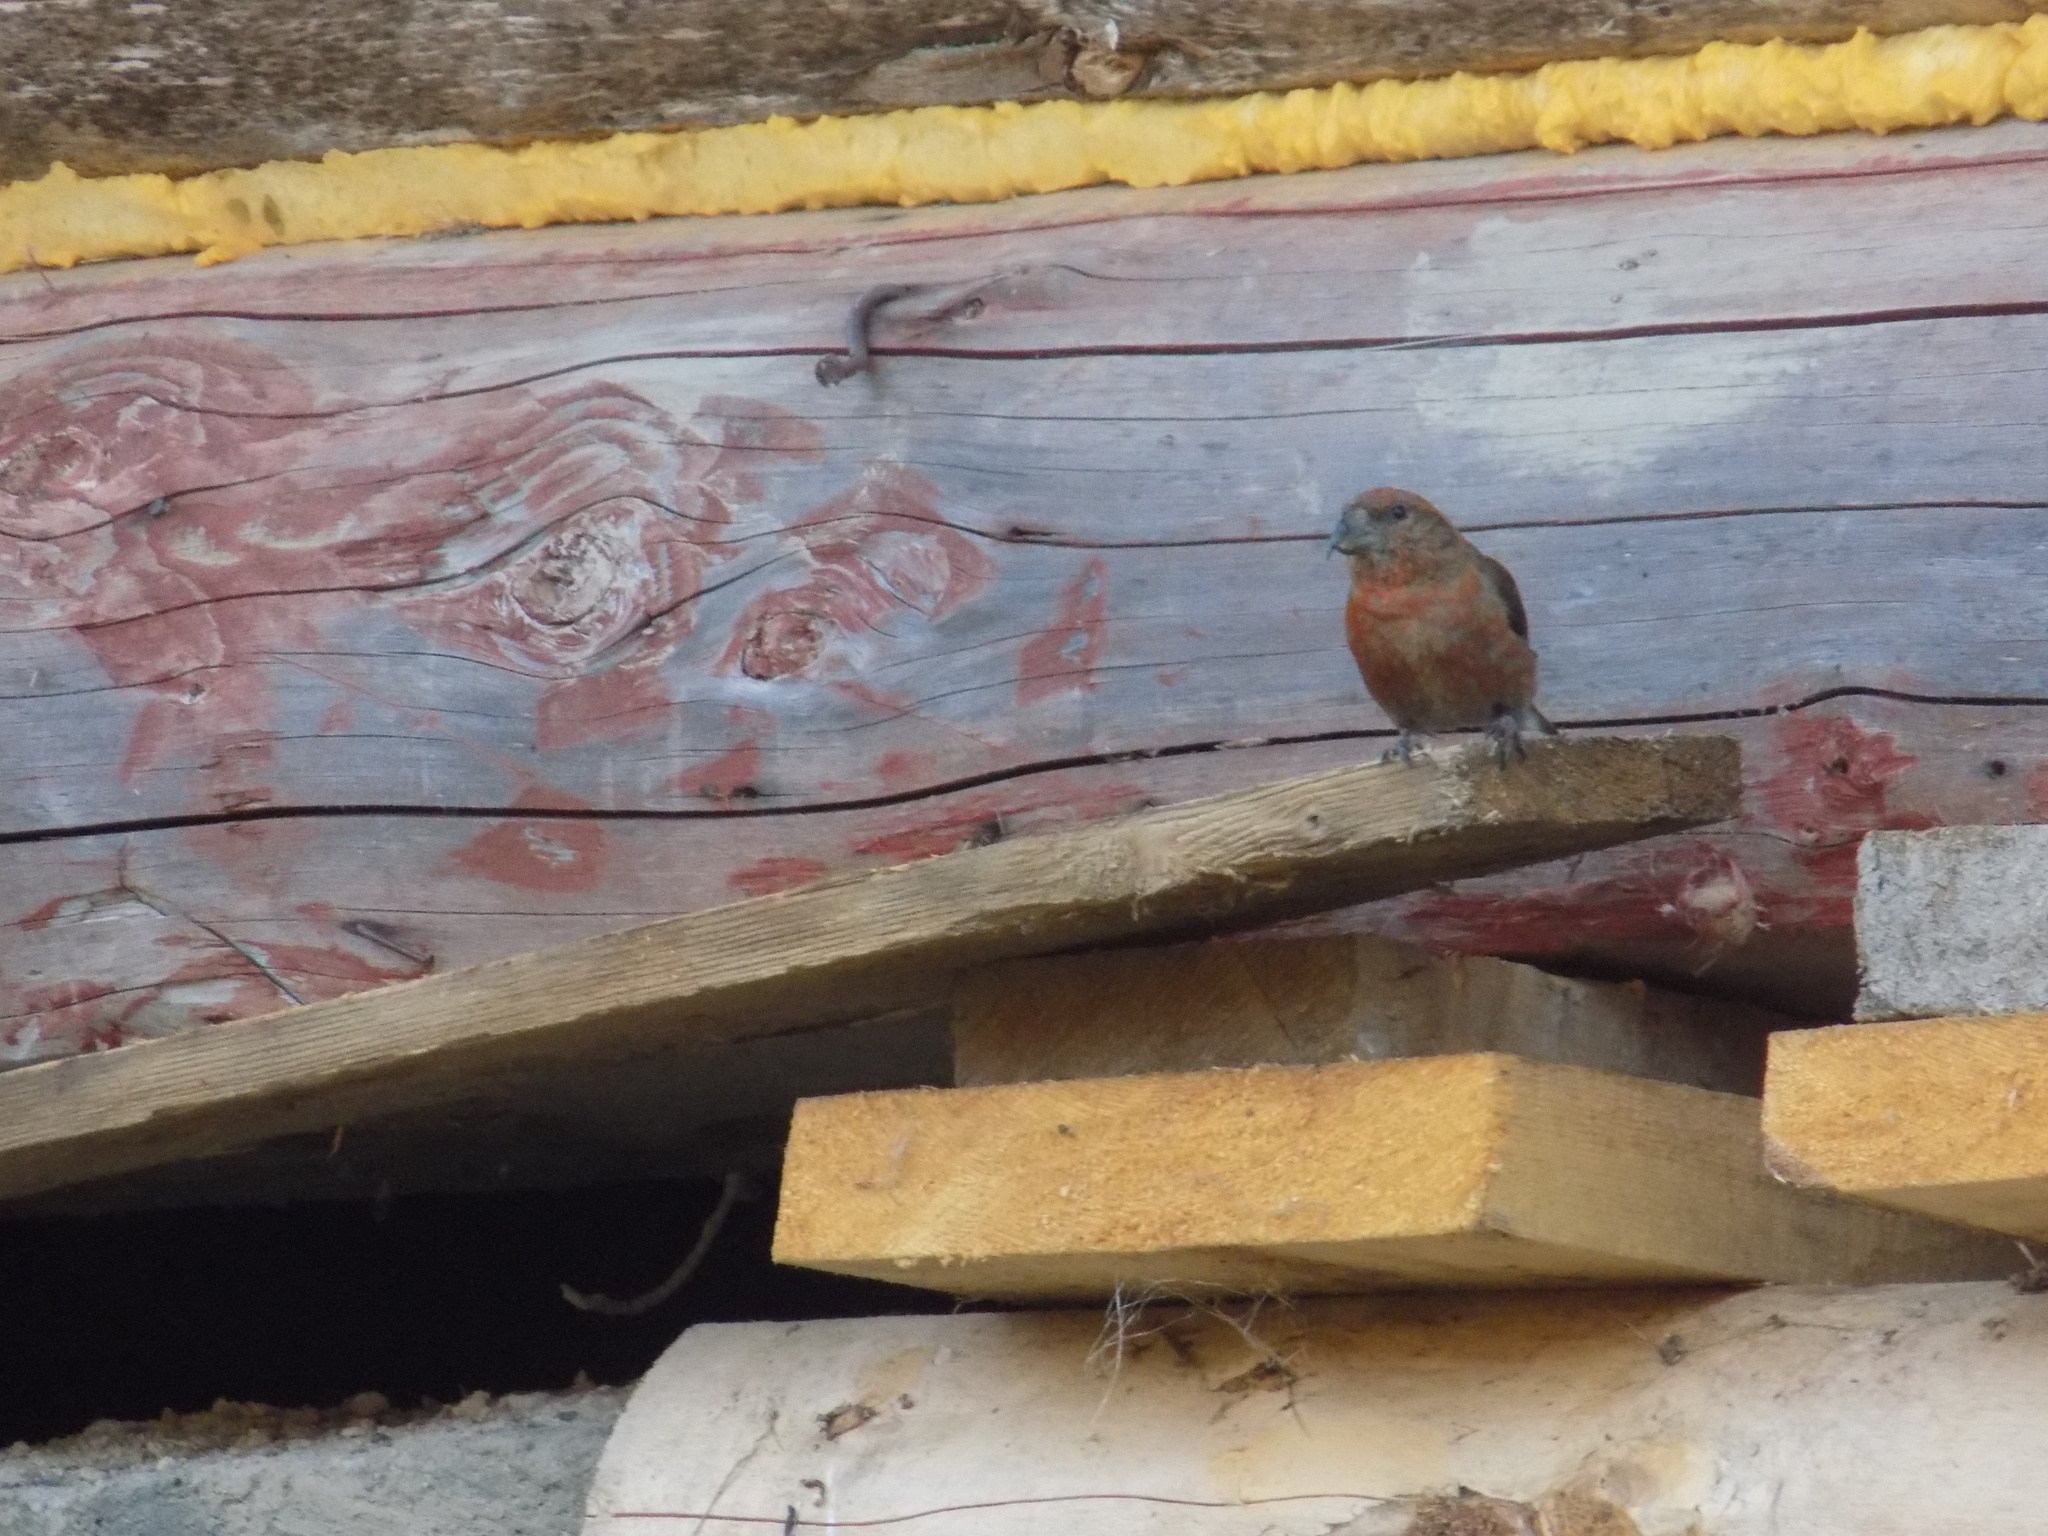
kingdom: Animalia
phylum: Chordata
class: Aves
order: Passeriformes
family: Fringillidae
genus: Loxia
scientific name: Loxia curvirostra
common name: Red crossbill
